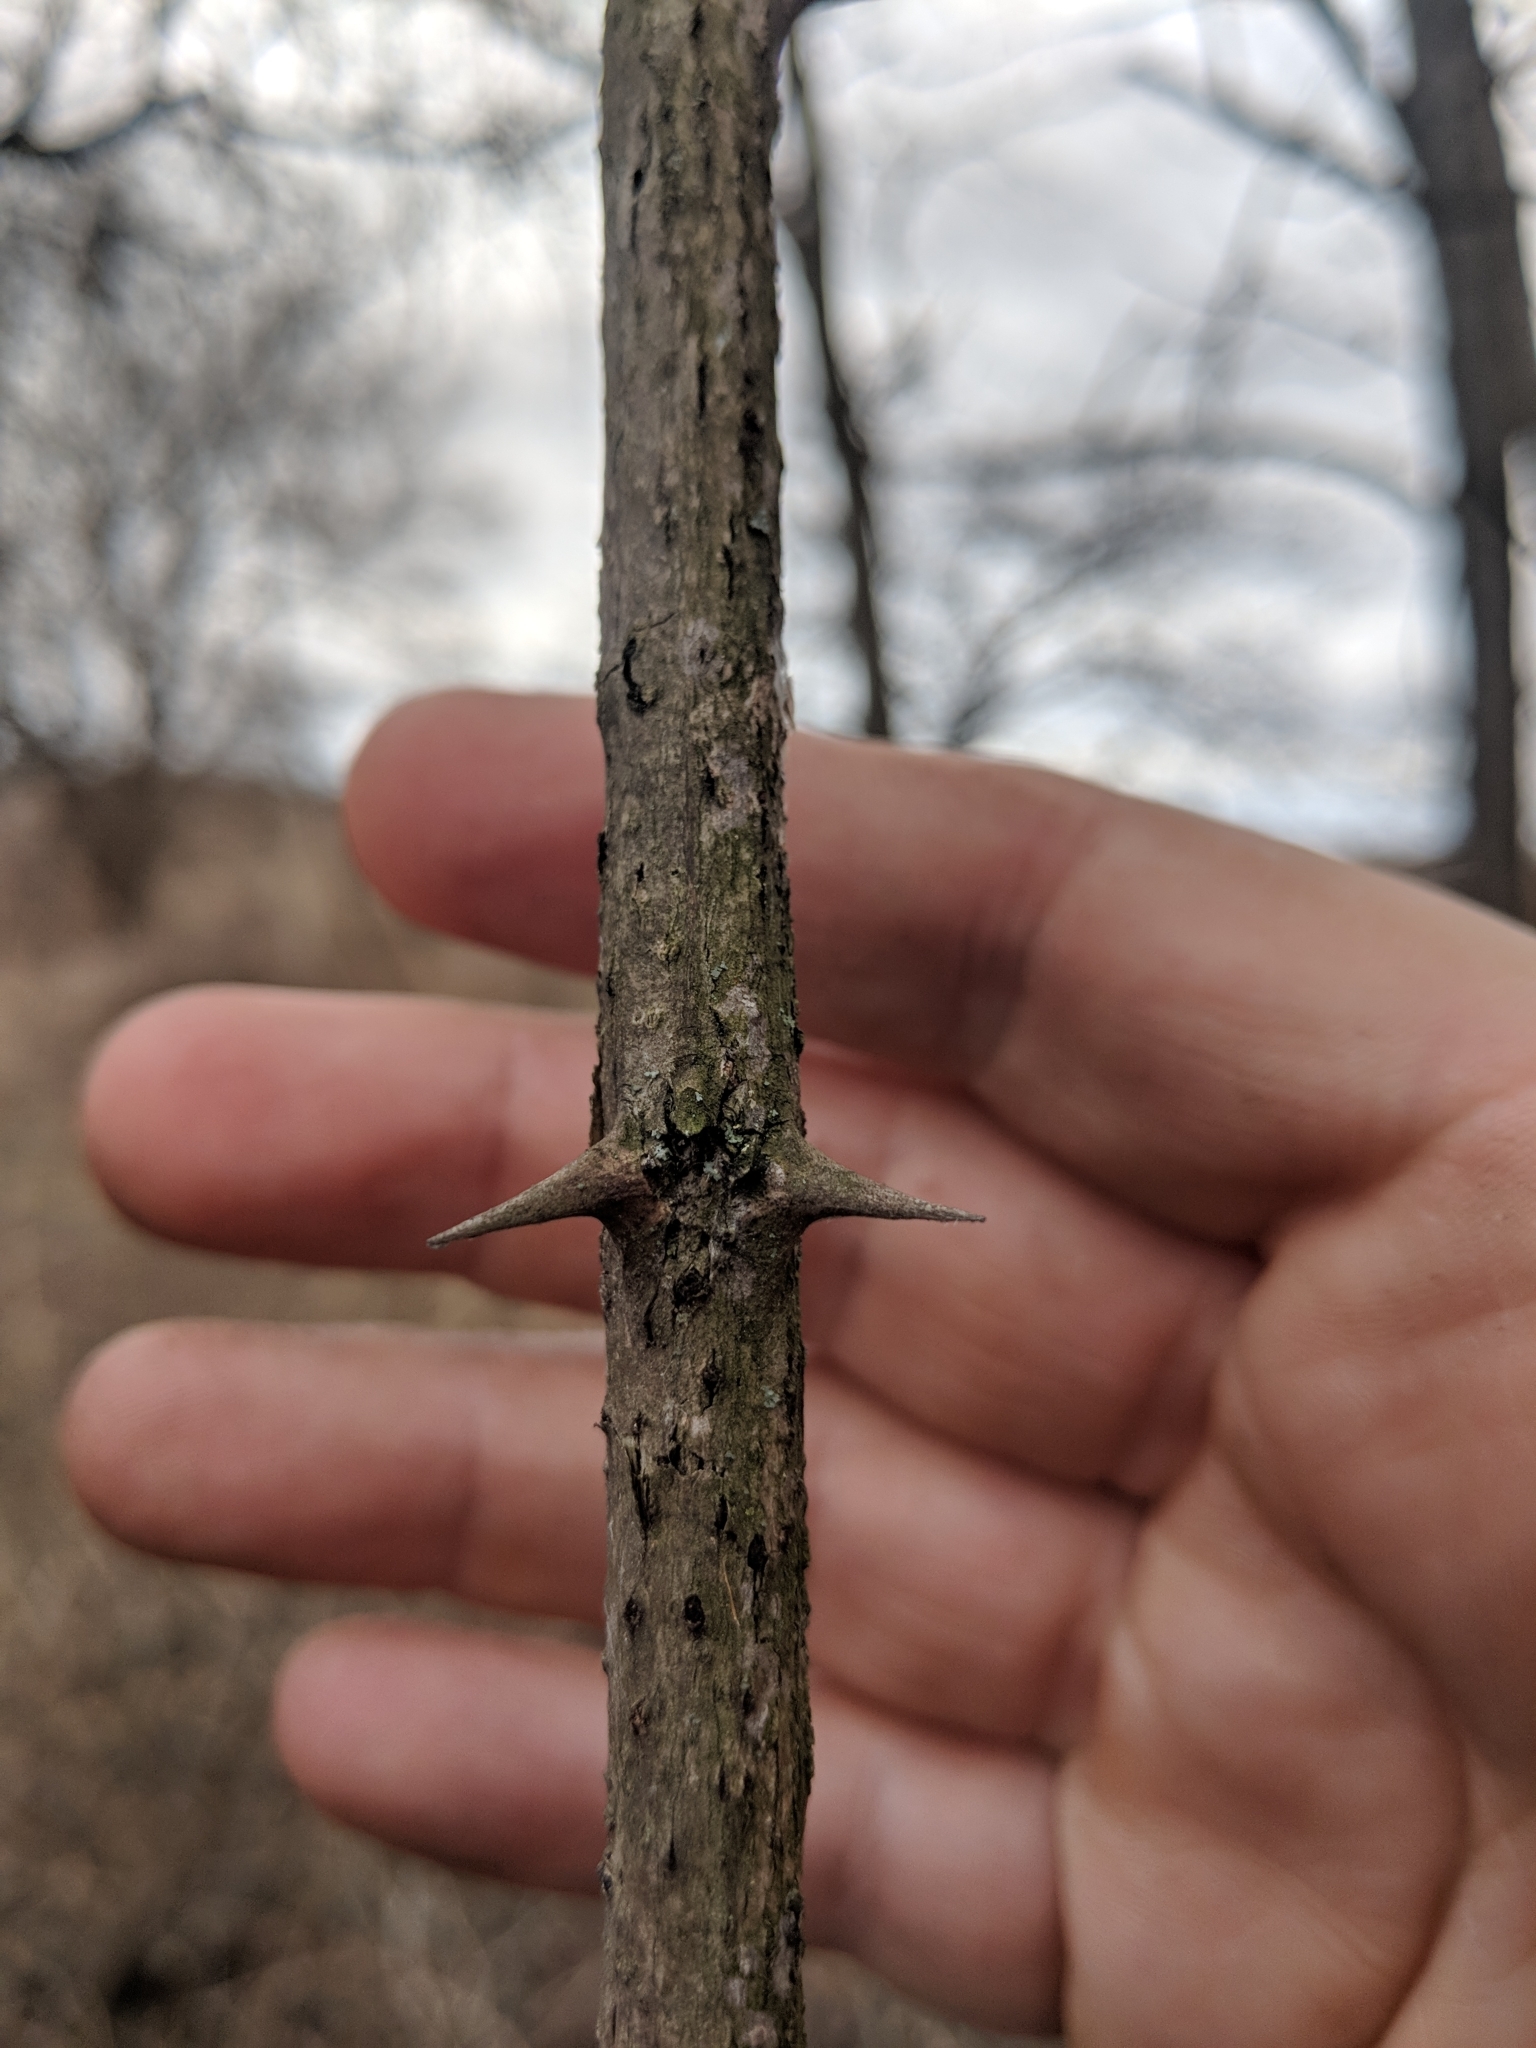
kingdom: Plantae
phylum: Tracheophyta
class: Magnoliopsida
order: Fabales
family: Fabaceae
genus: Robinia
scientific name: Robinia pseudoacacia
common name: Black locust
